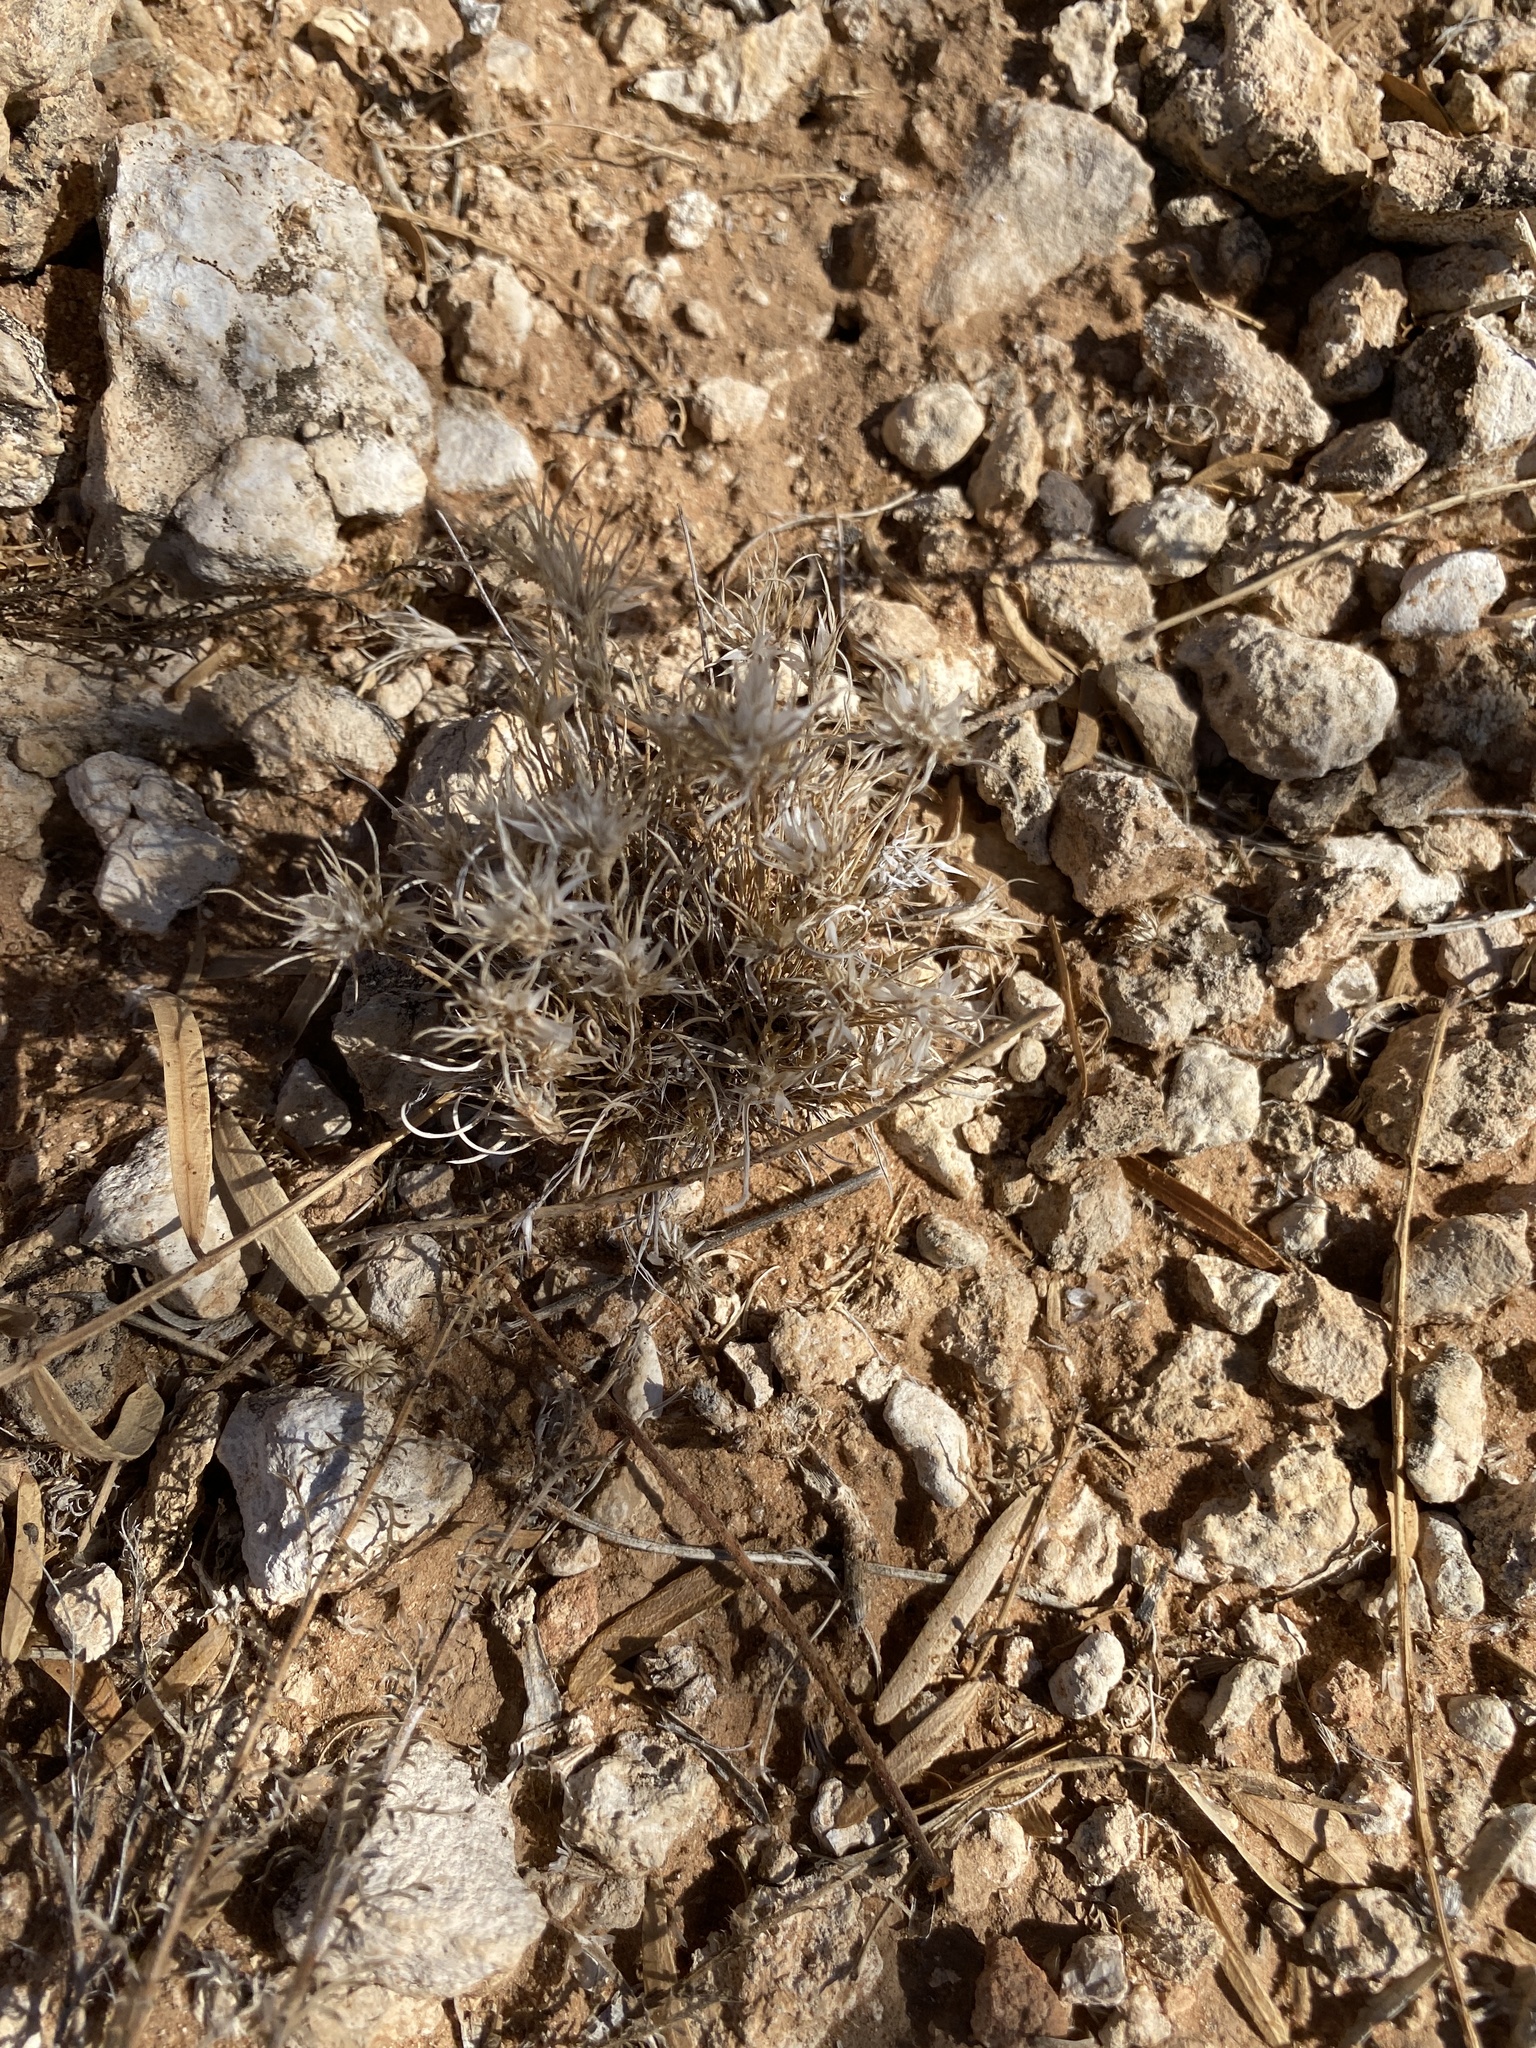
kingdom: Plantae
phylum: Tracheophyta
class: Liliopsida
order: Poales
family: Poaceae
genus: Dasyochloa
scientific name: Dasyochloa pulchella
